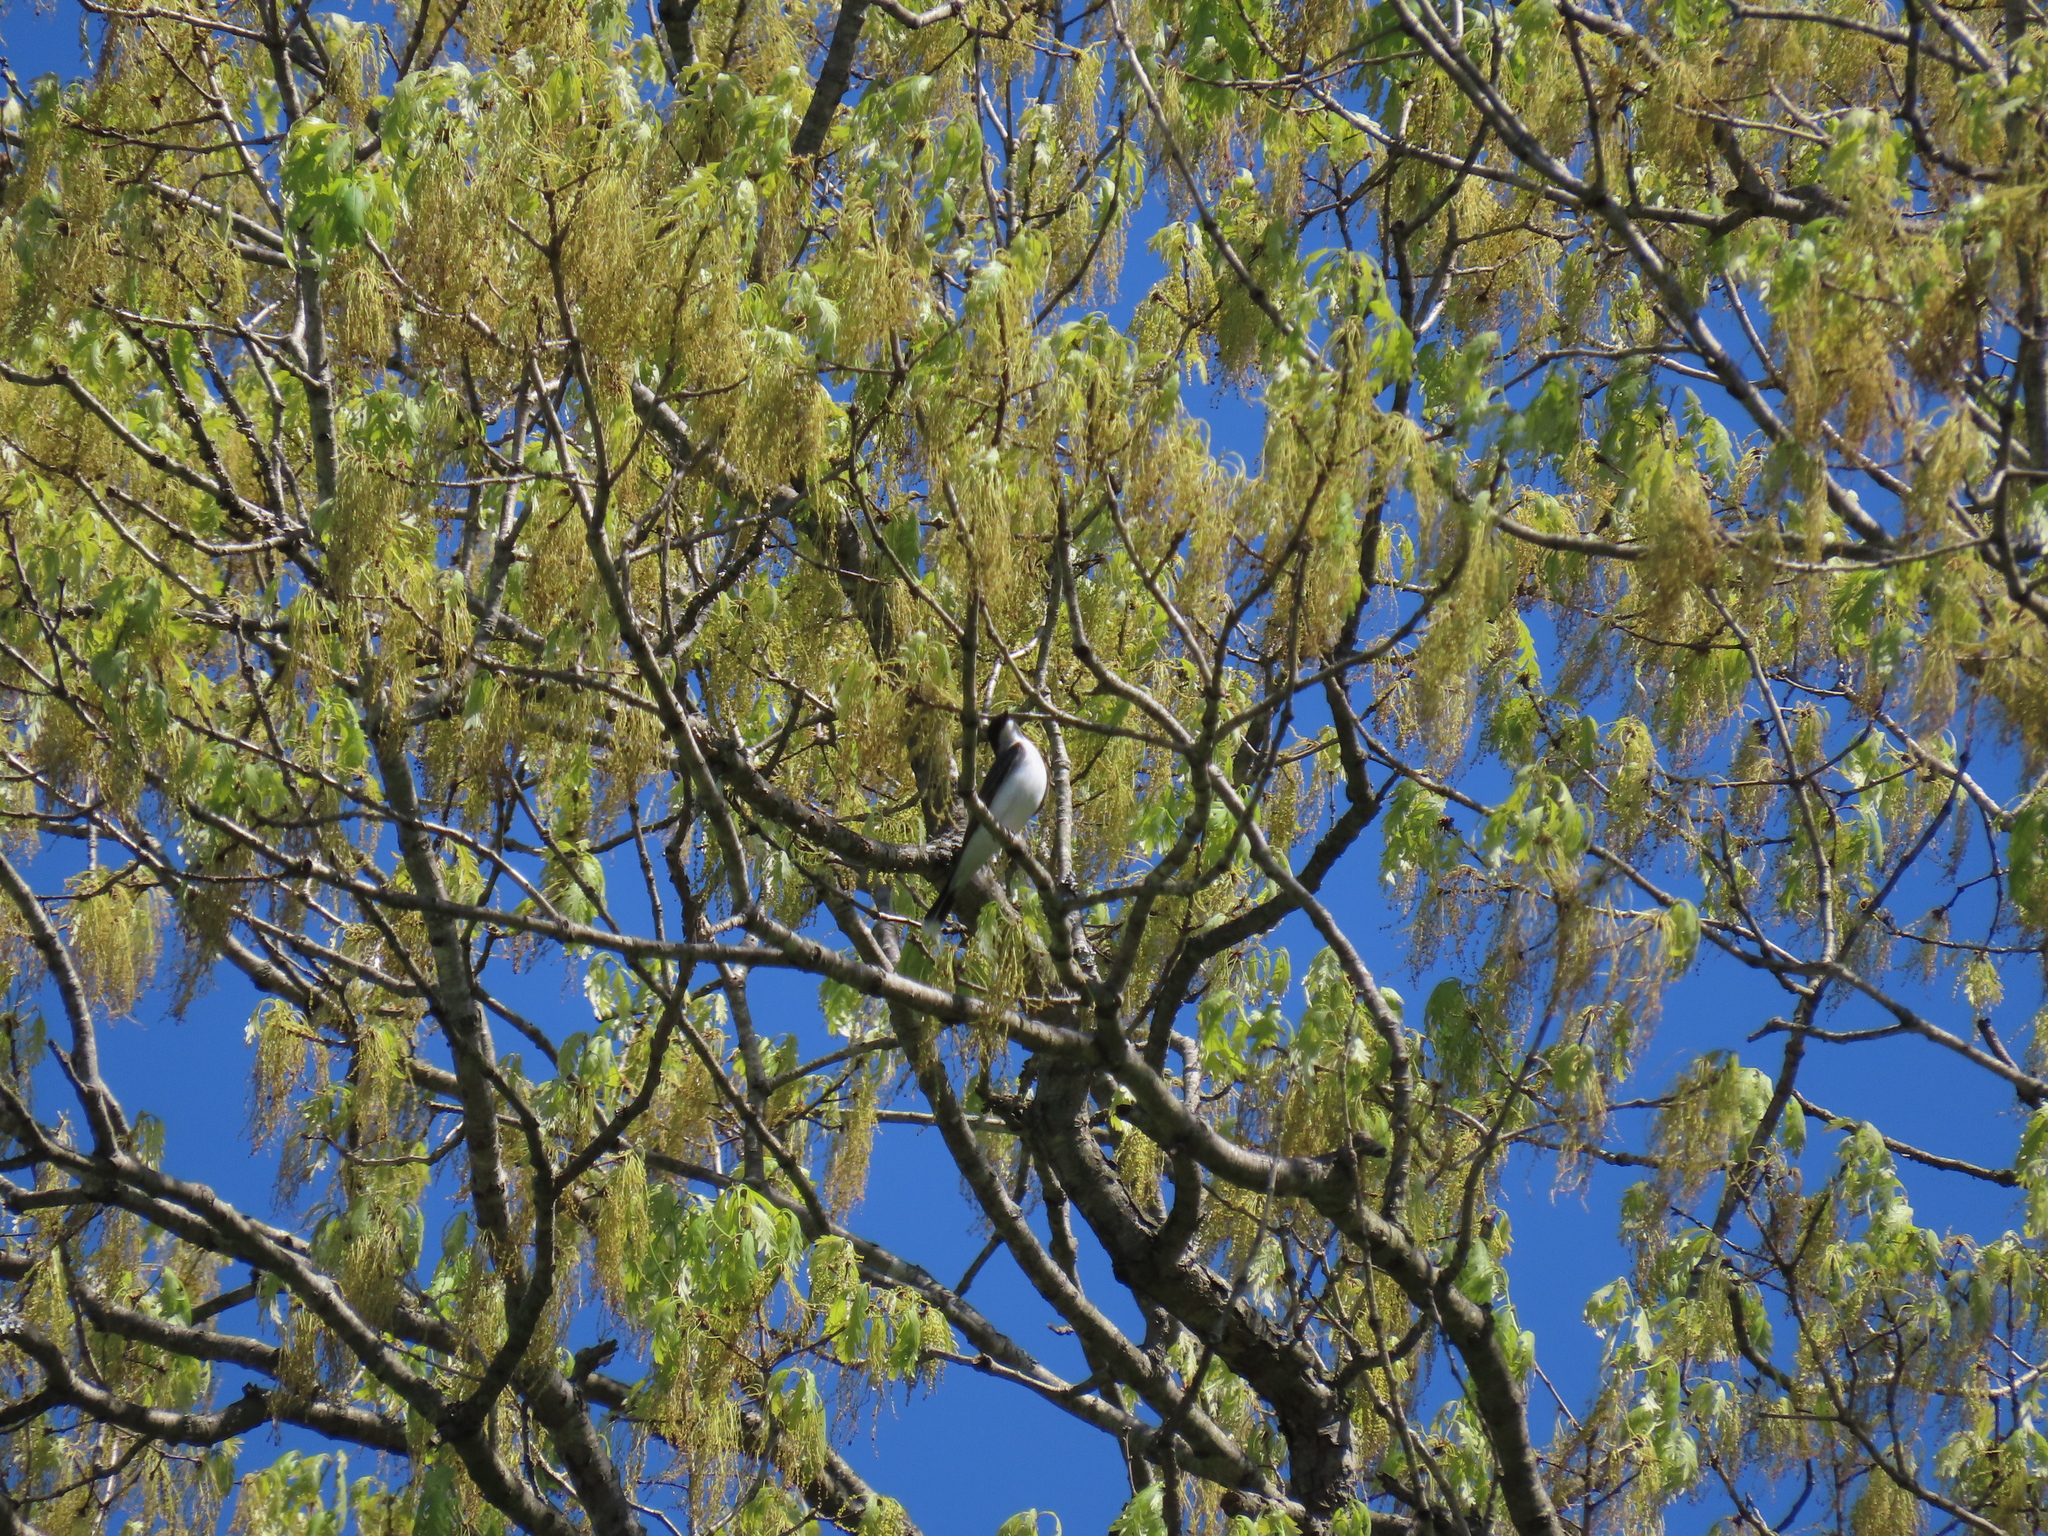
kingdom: Animalia
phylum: Chordata
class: Aves
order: Passeriformes
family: Tyrannidae
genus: Tyrannus
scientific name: Tyrannus tyrannus
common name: Eastern kingbird
